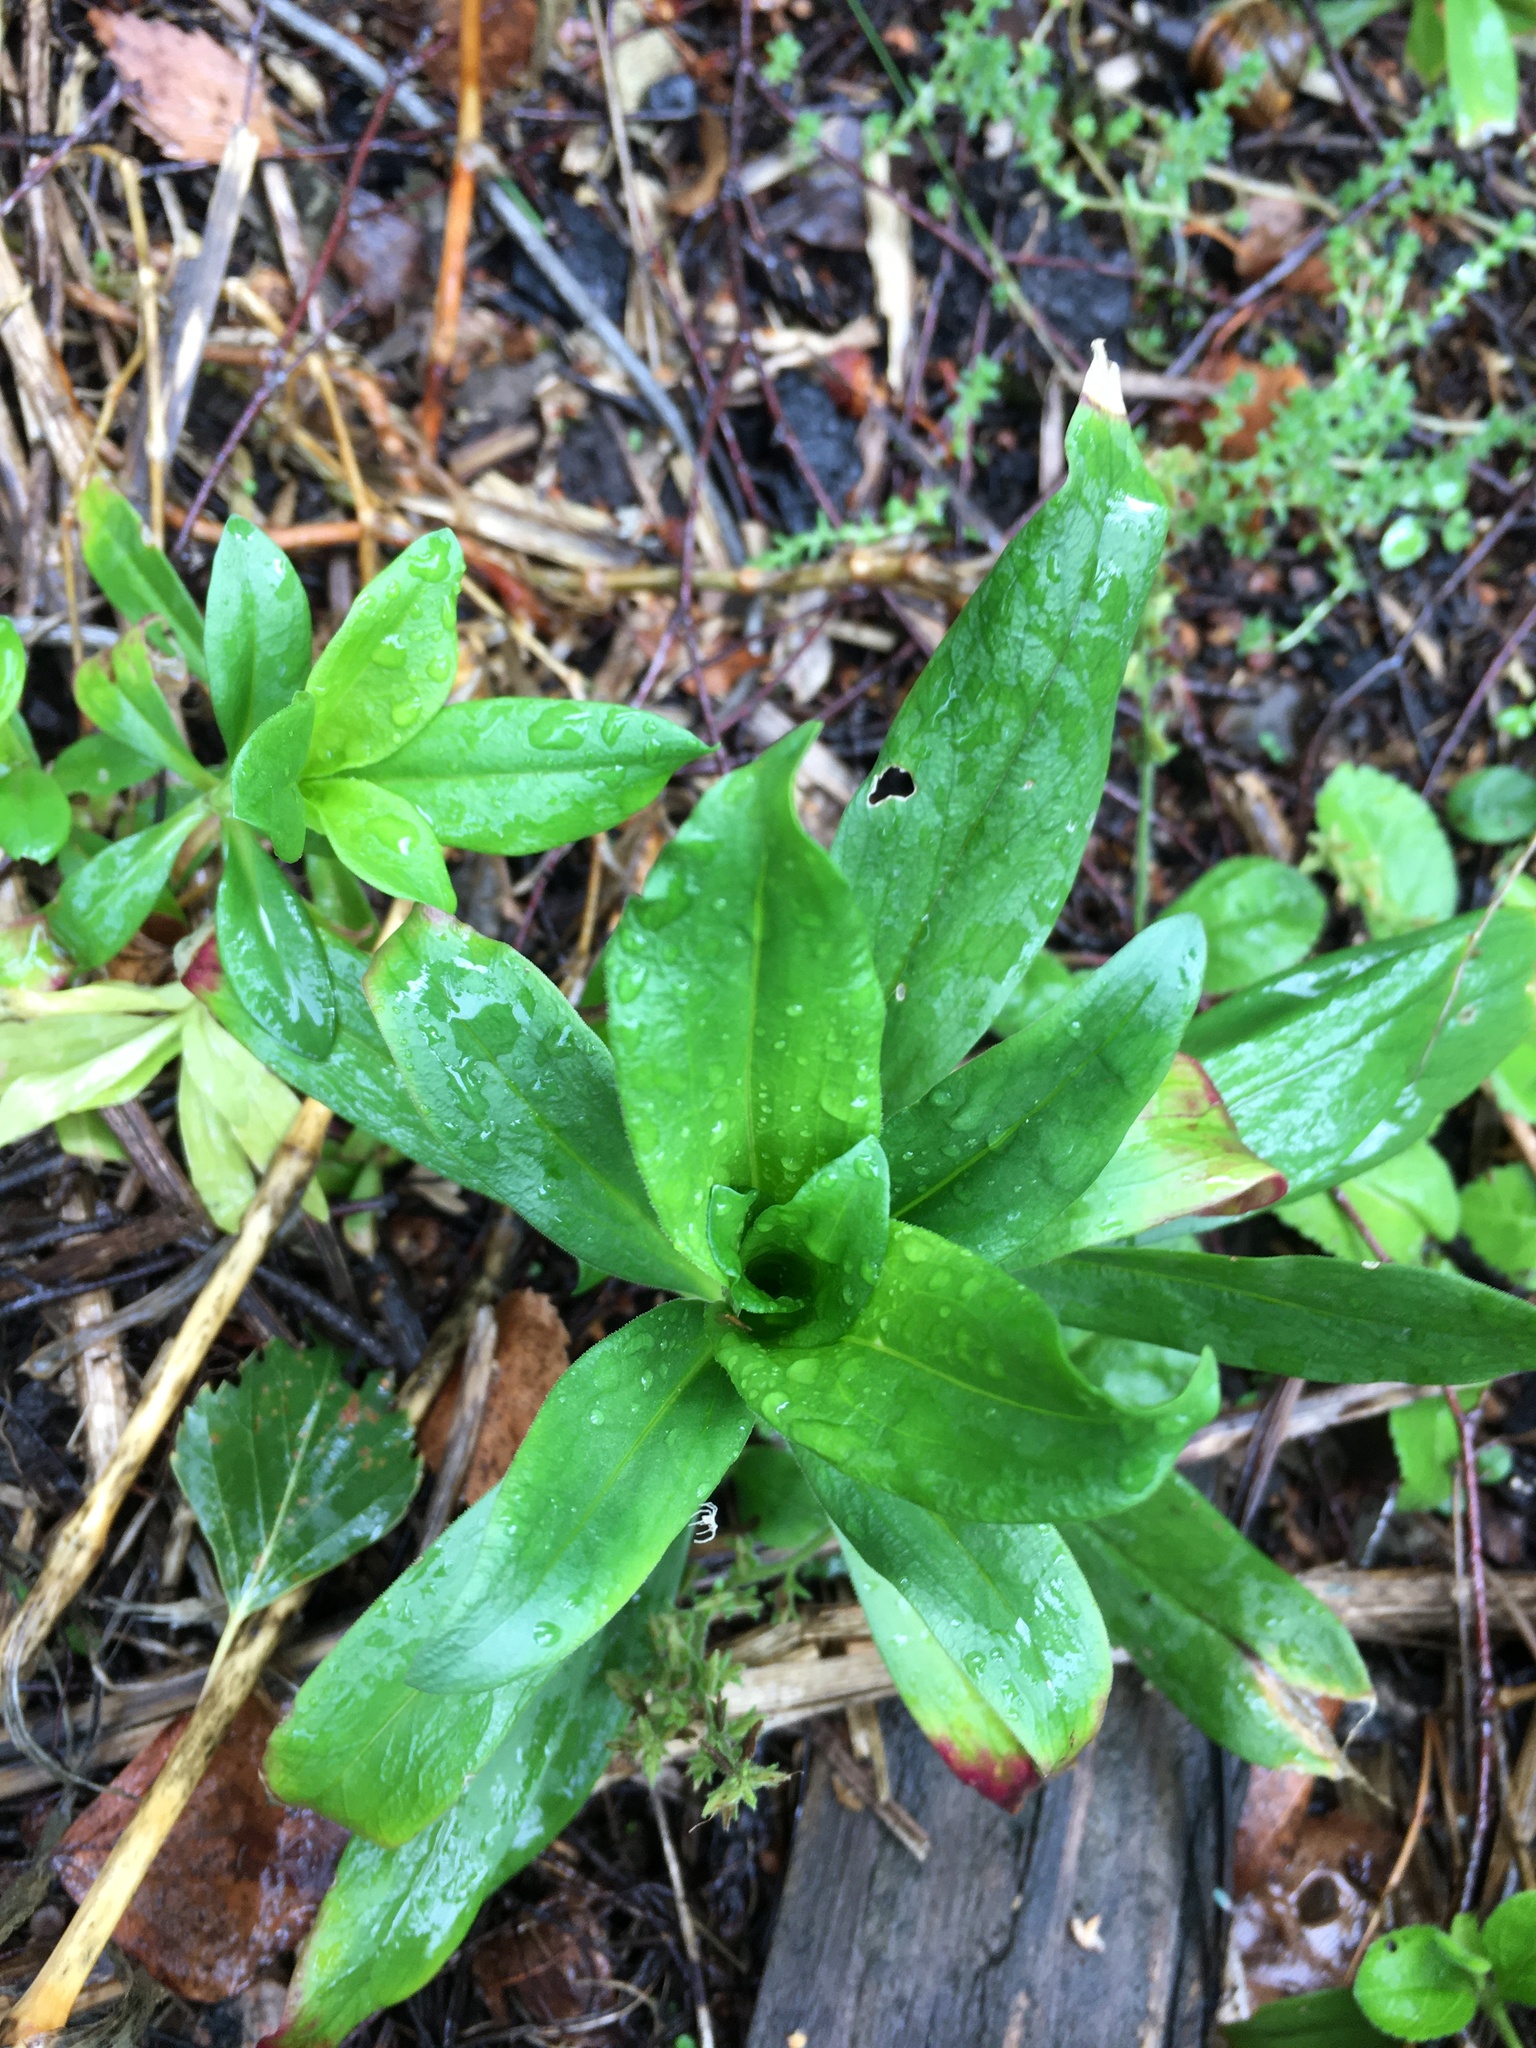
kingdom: Plantae
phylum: Tracheophyta
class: Magnoliopsida
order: Caryophyllales
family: Caryophyllaceae
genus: Dianthus
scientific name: Dianthus barbatus
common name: Sweet-william
